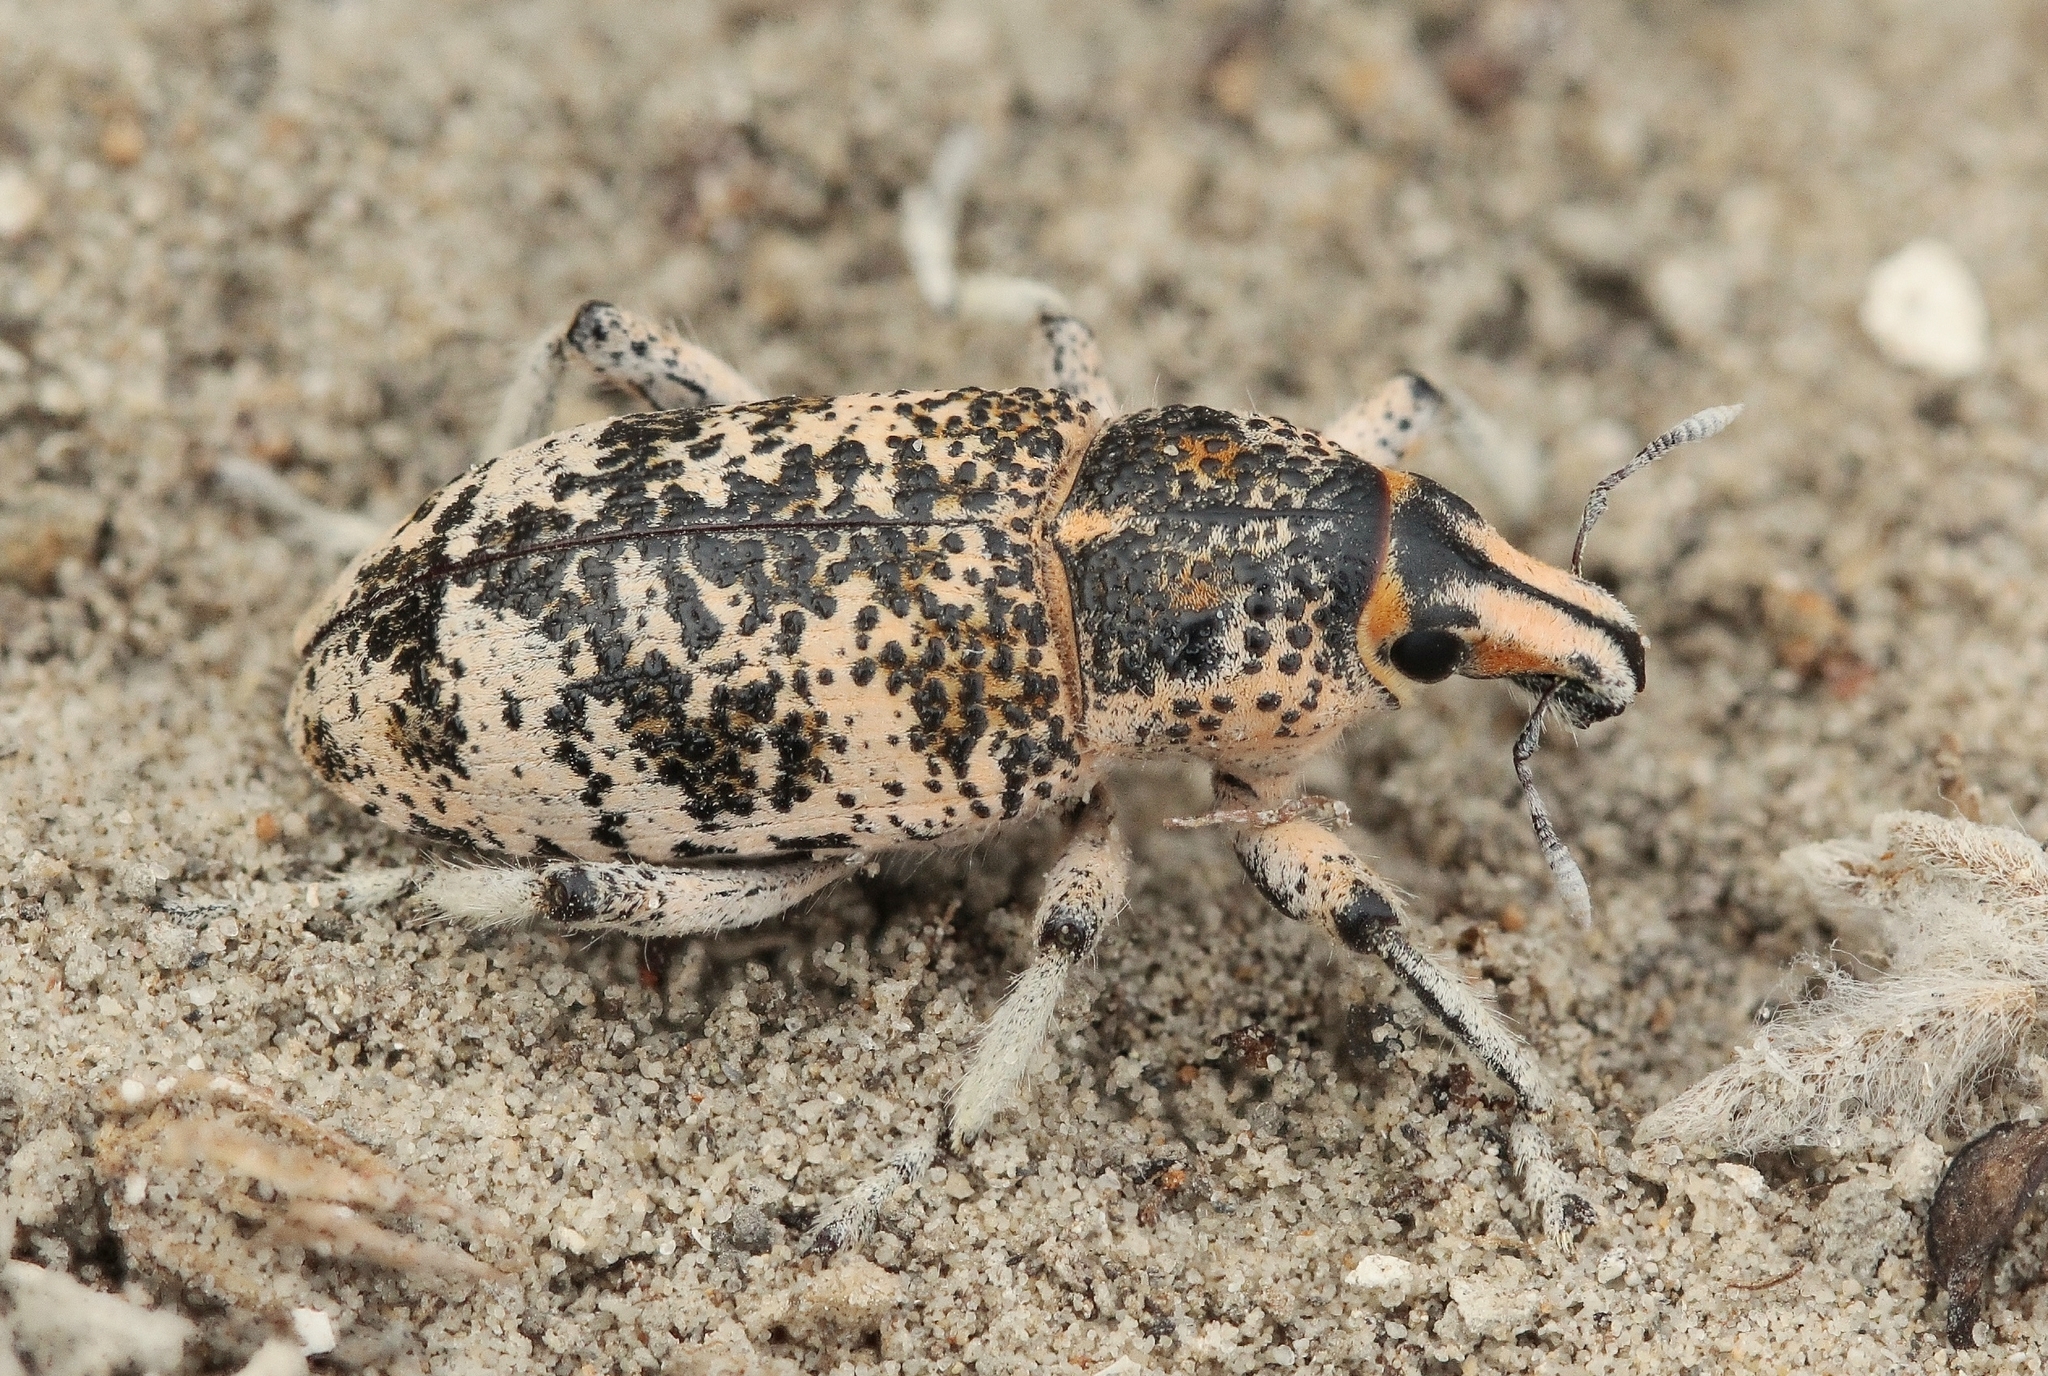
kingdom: Animalia
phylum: Arthropoda
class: Insecta
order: Coleoptera
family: Curculionidae
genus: Cleonus
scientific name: Cleonus verrucosus
